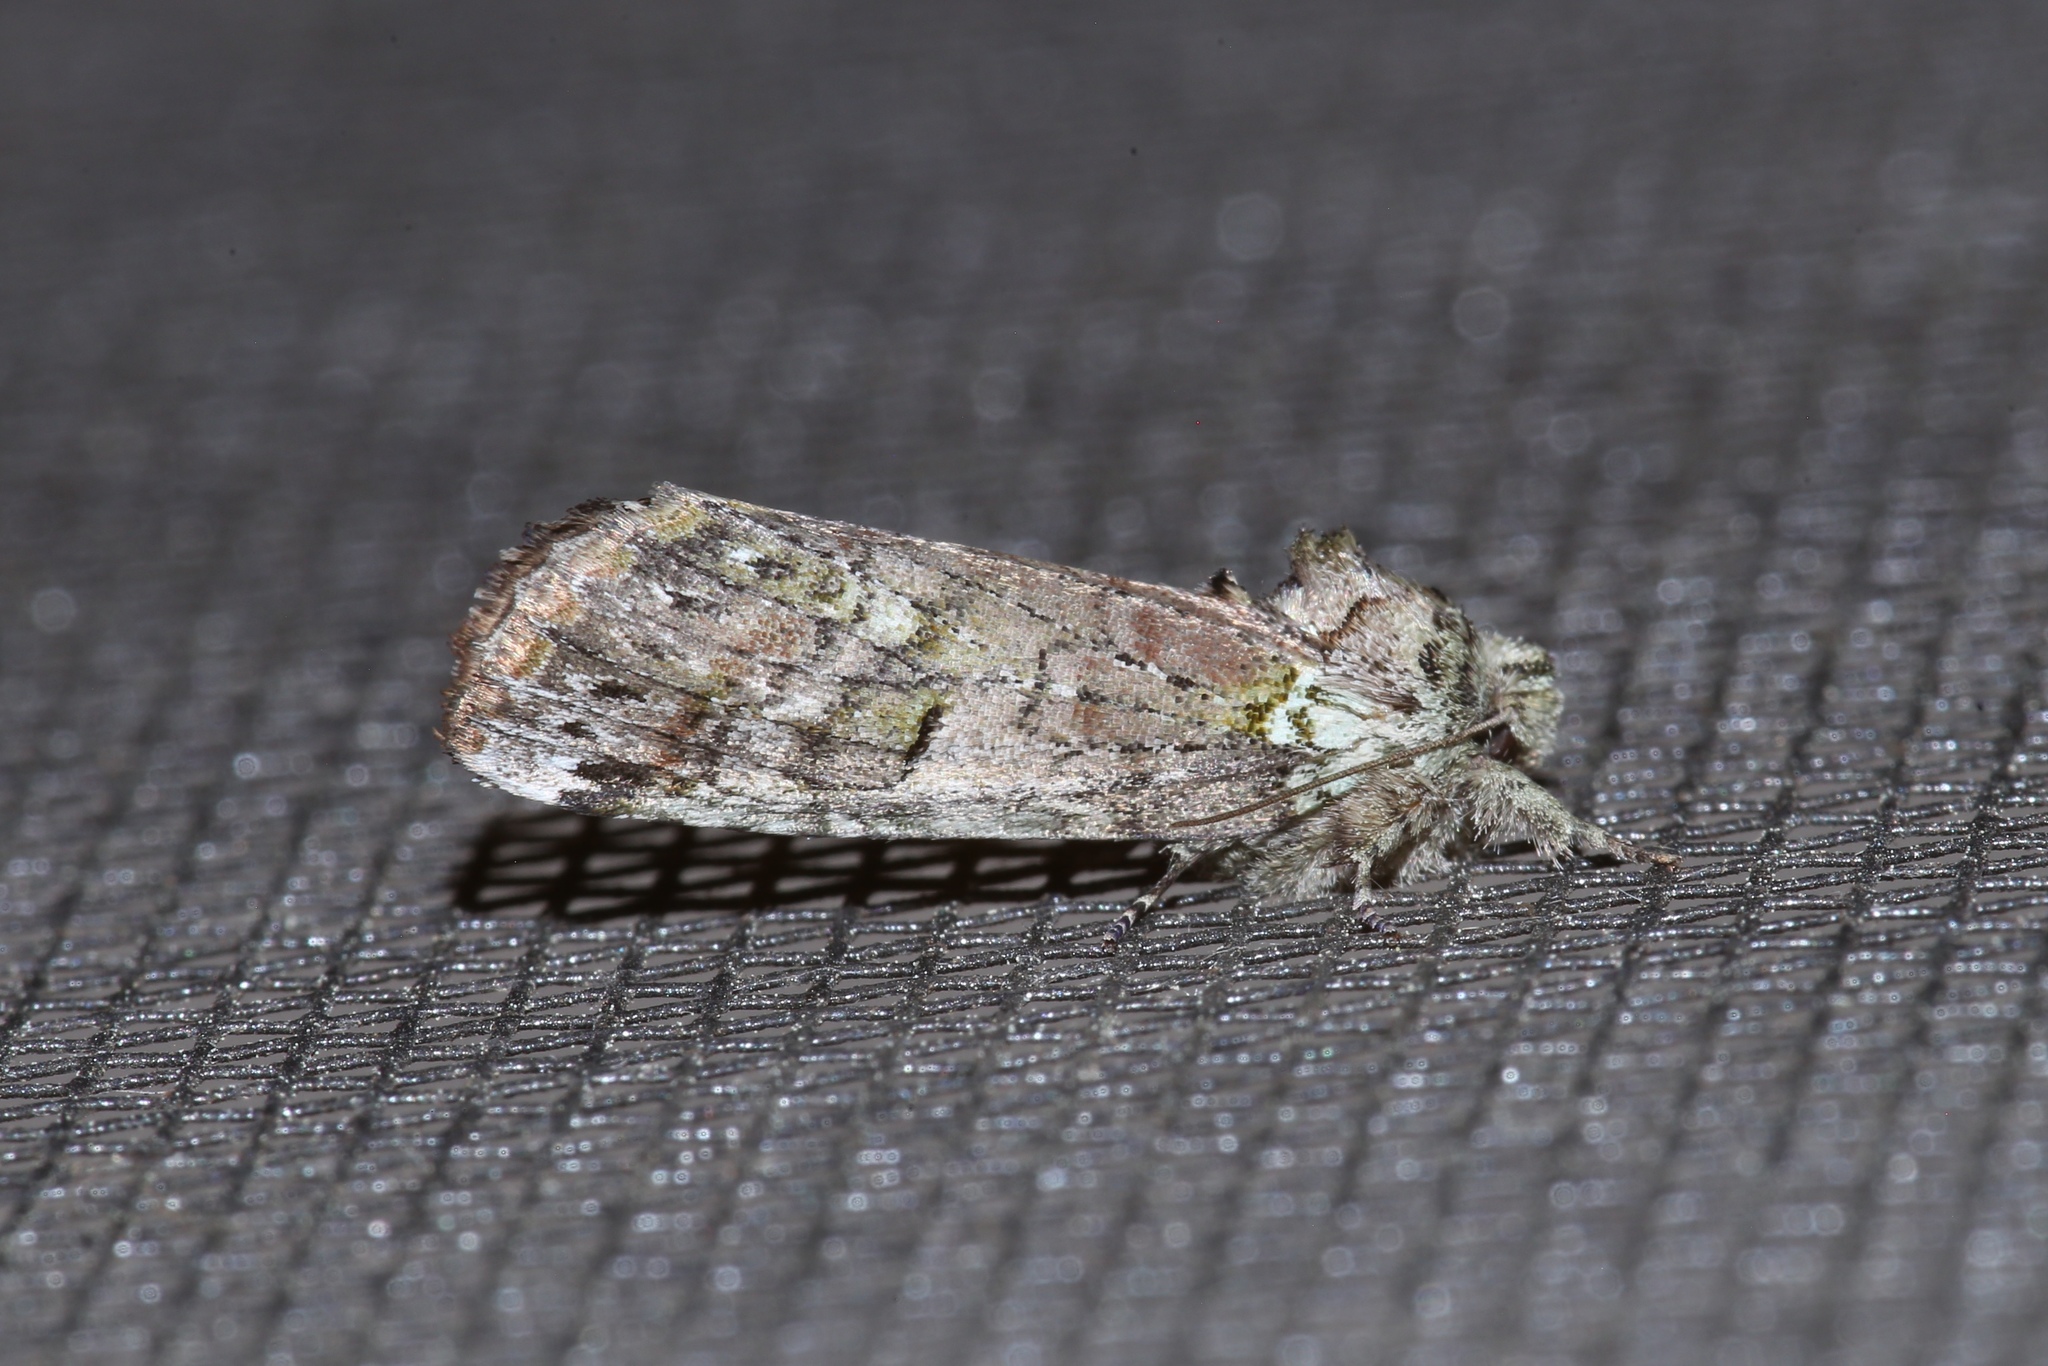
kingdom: Animalia
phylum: Arthropoda
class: Insecta
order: Lepidoptera
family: Notodontidae
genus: Schizura
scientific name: Schizura
